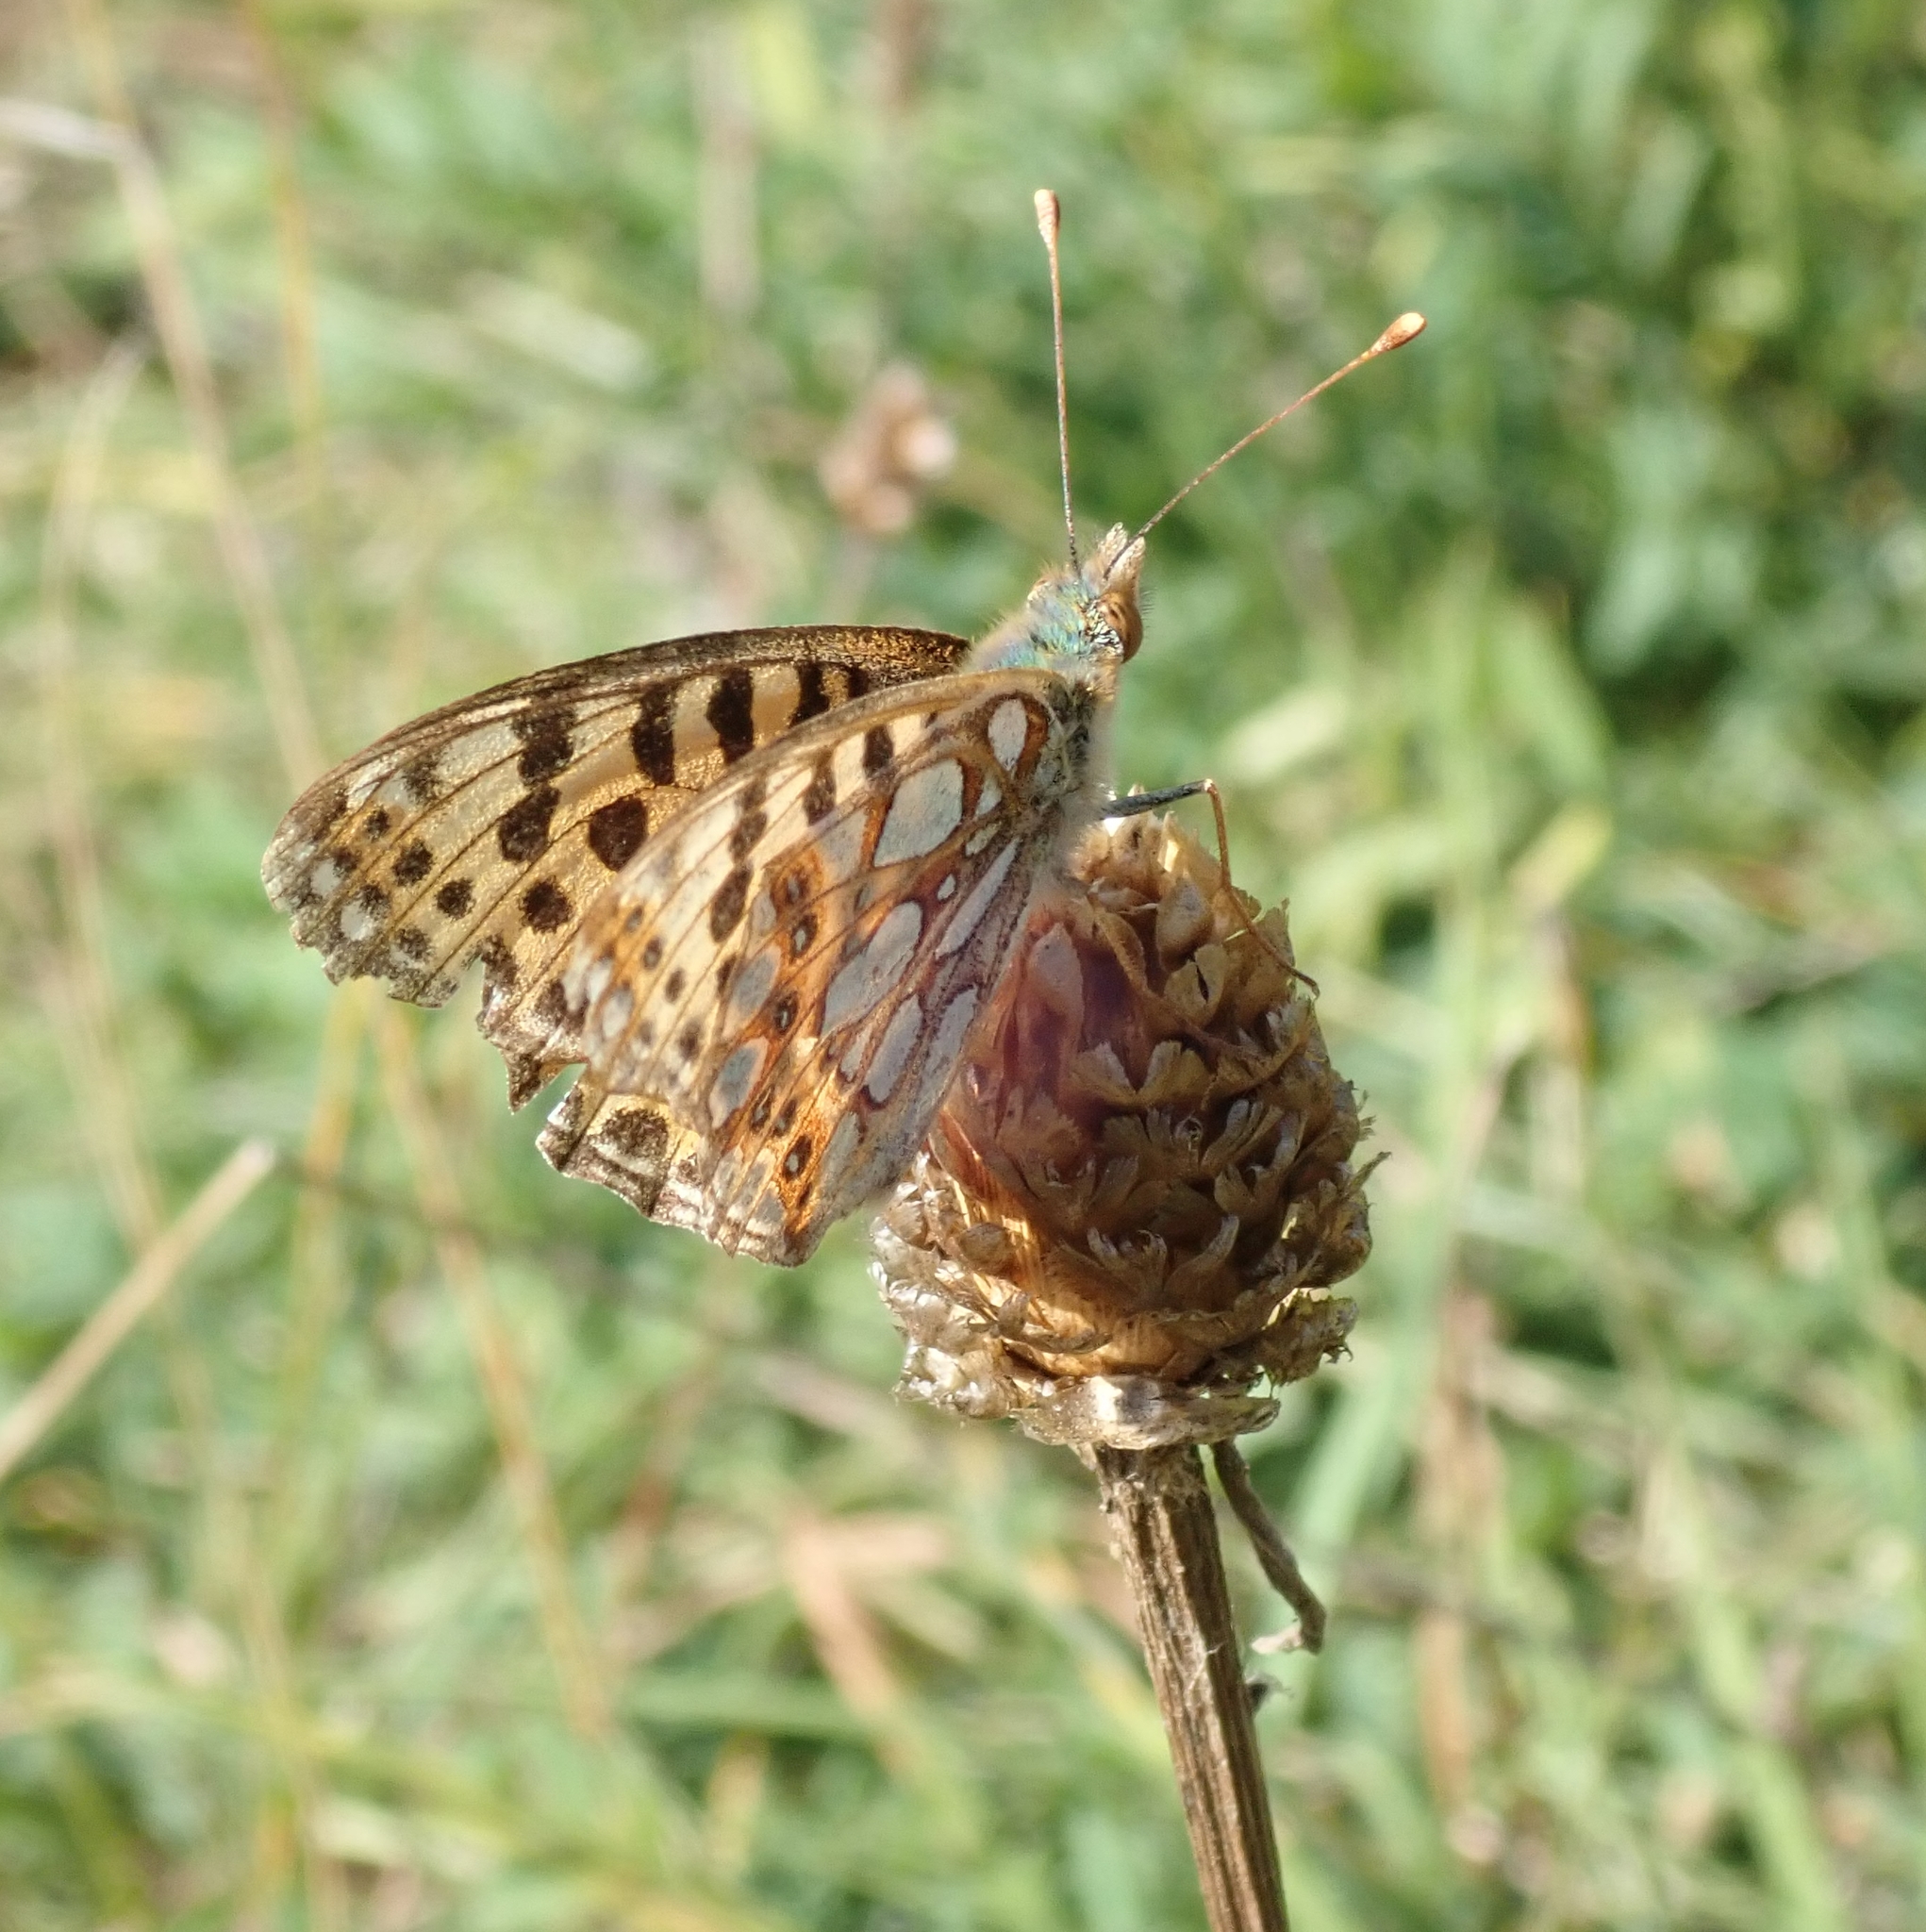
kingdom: Animalia
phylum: Arthropoda
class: Insecta
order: Lepidoptera
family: Nymphalidae
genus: Issoria
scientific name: Issoria lathonia
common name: Queen of spain fritillary
